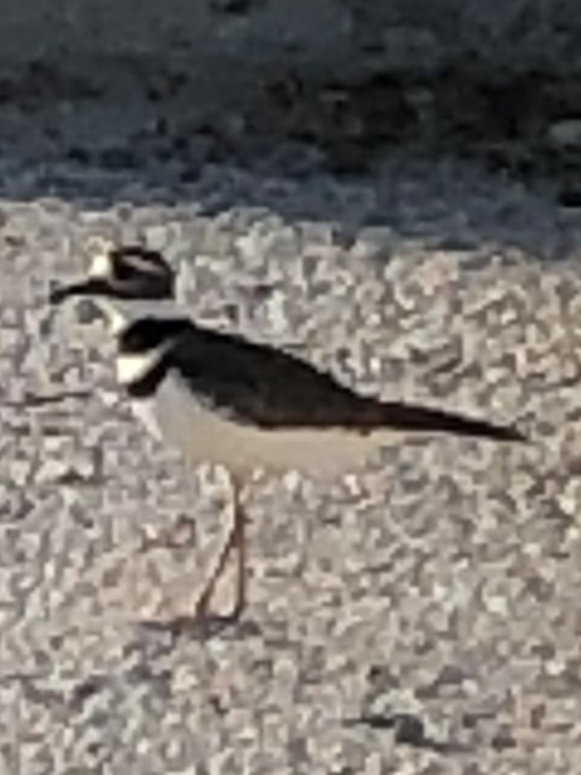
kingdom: Animalia
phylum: Chordata
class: Aves
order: Charadriiformes
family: Charadriidae
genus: Charadrius
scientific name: Charadrius vociferus
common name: Killdeer
